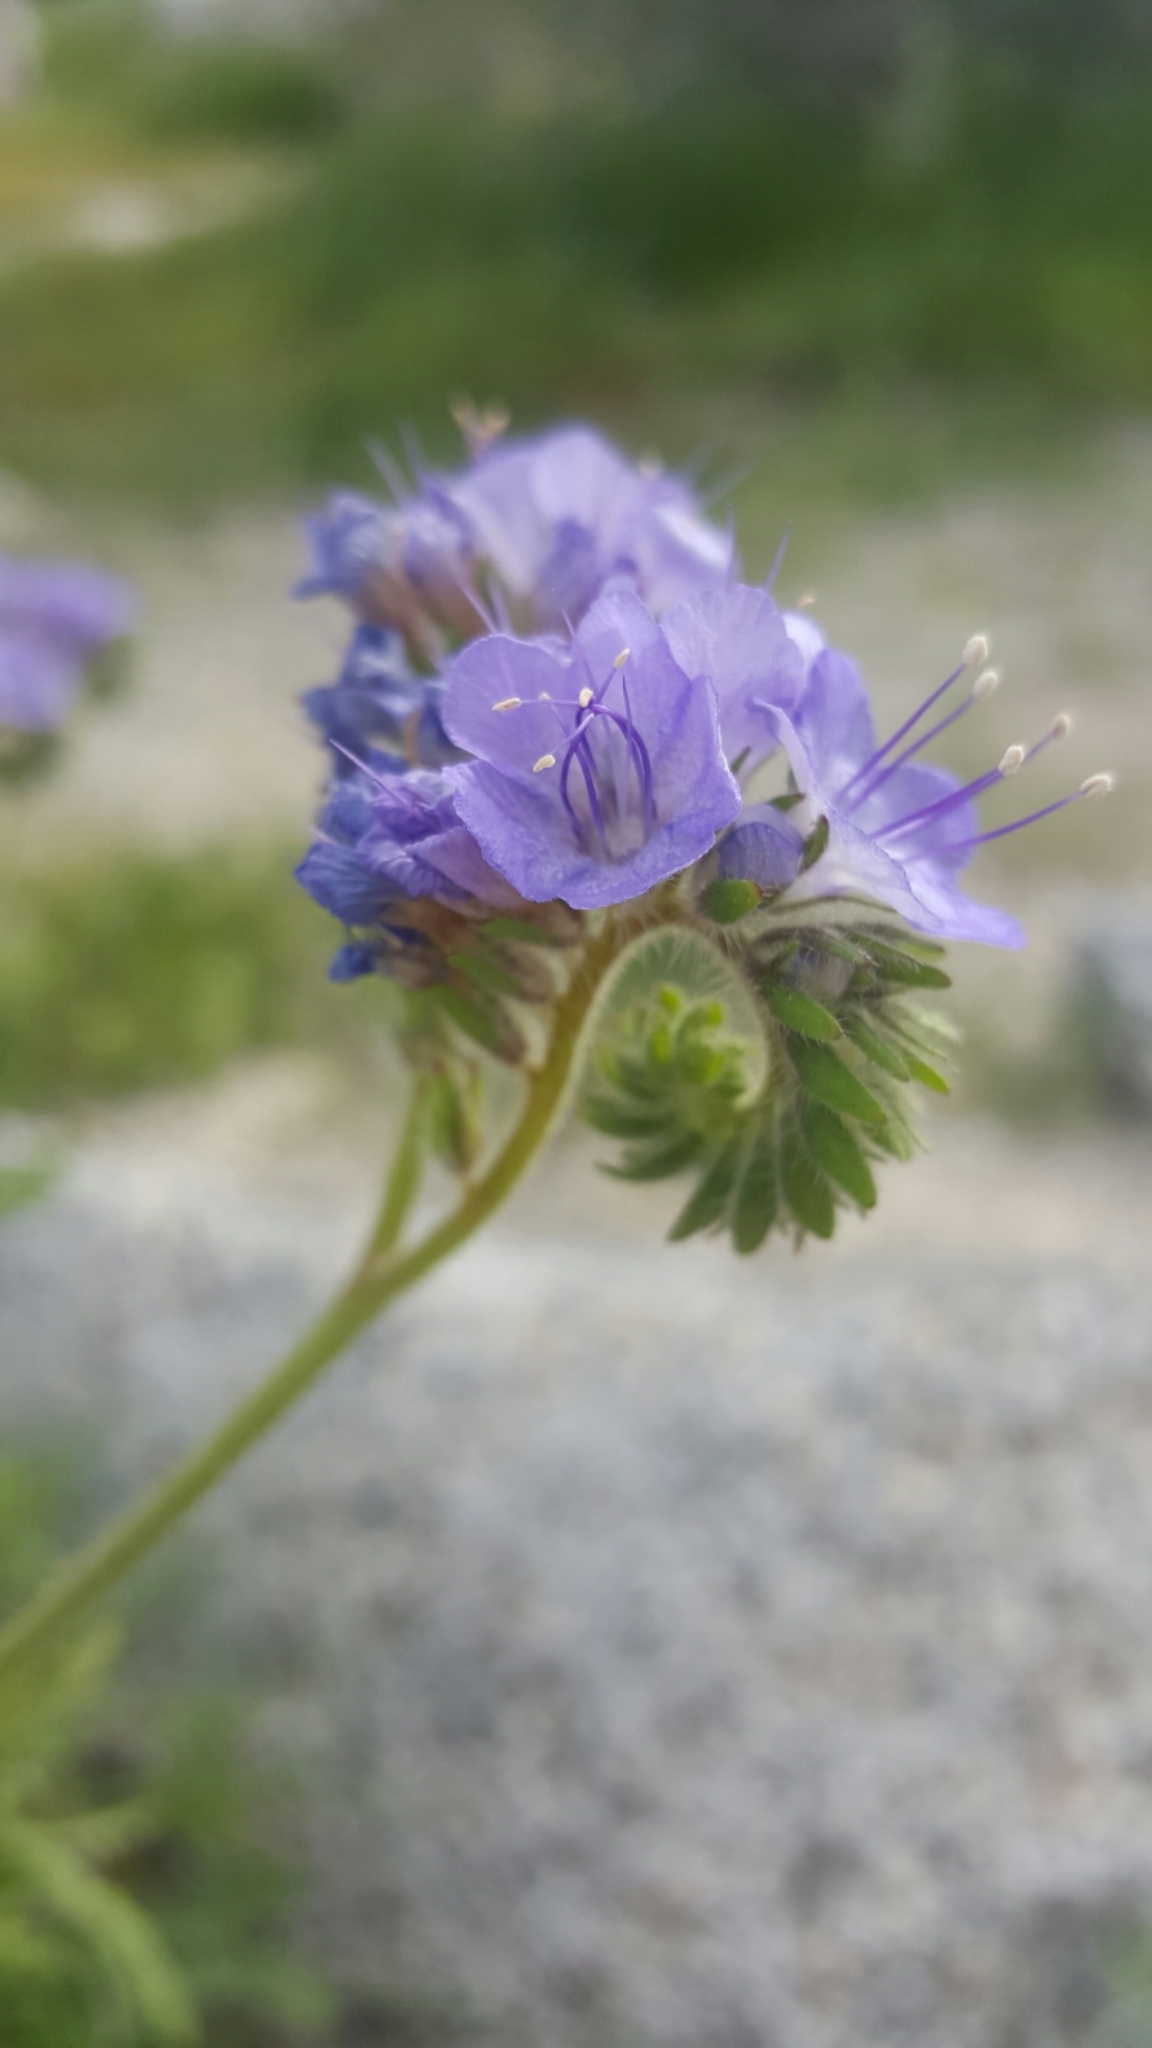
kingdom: Plantae
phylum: Tracheophyta
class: Magnoliopsida
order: Boraginales
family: Hydrophyllaceae
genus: Phacelia
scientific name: Phacelia distans
